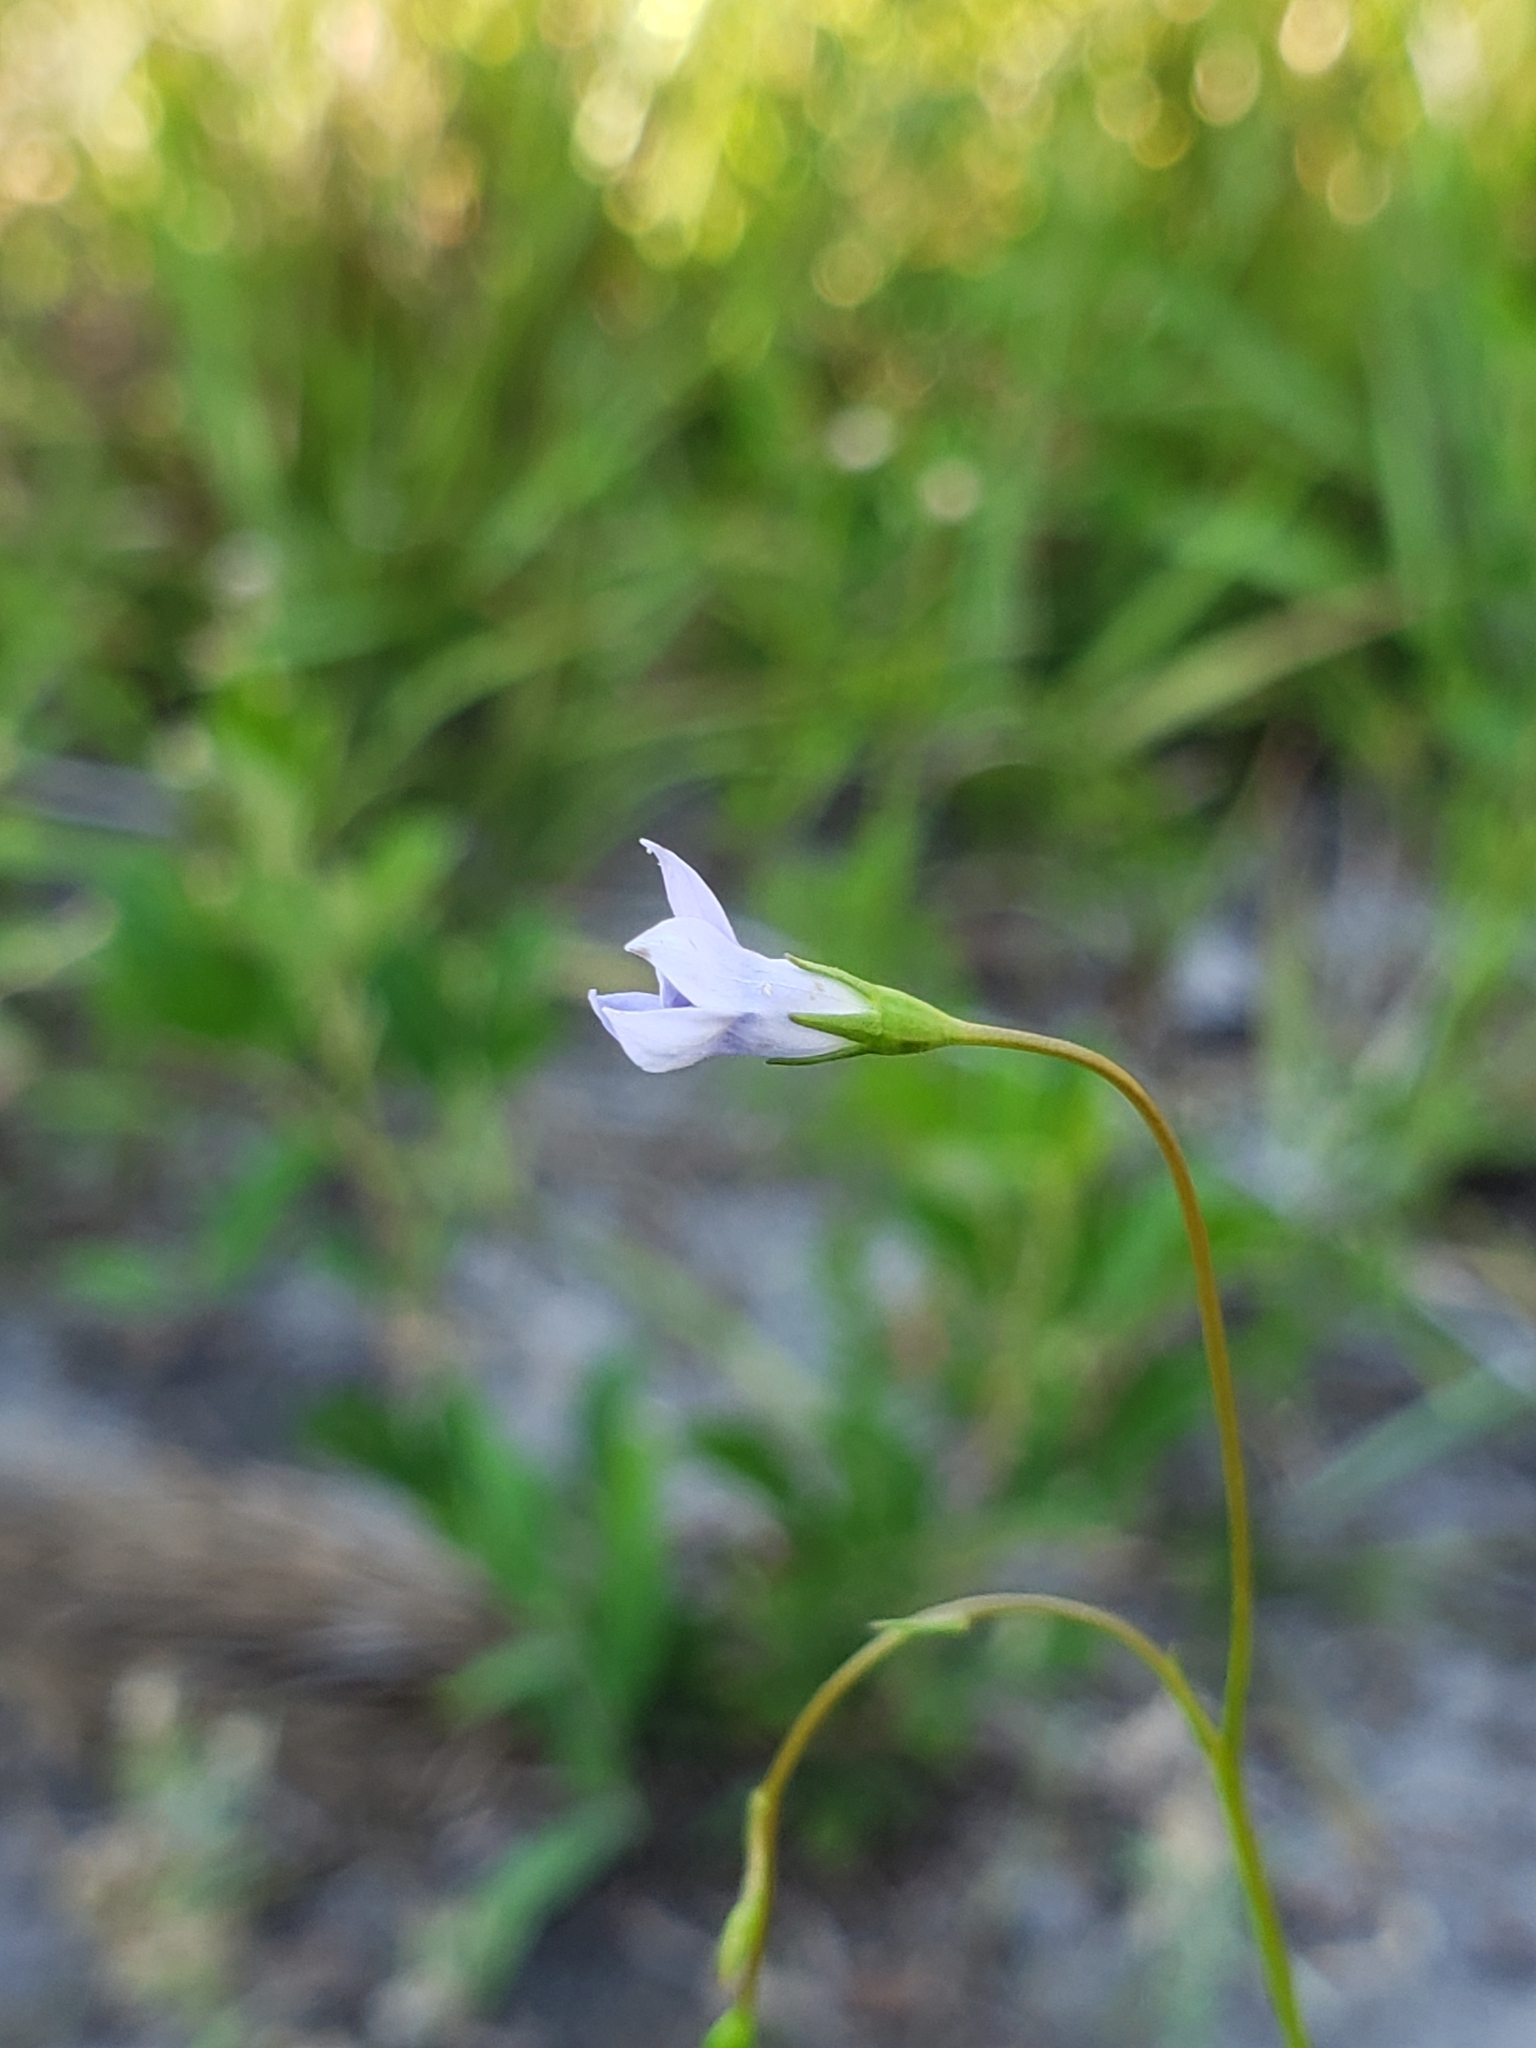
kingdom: Plantae
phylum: Tracheophyta
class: Magnoliopsida
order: Asterales
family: Campanulaceae
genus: Wahlenbergia
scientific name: Wahlenbergia marginata
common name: Southern rockbell
